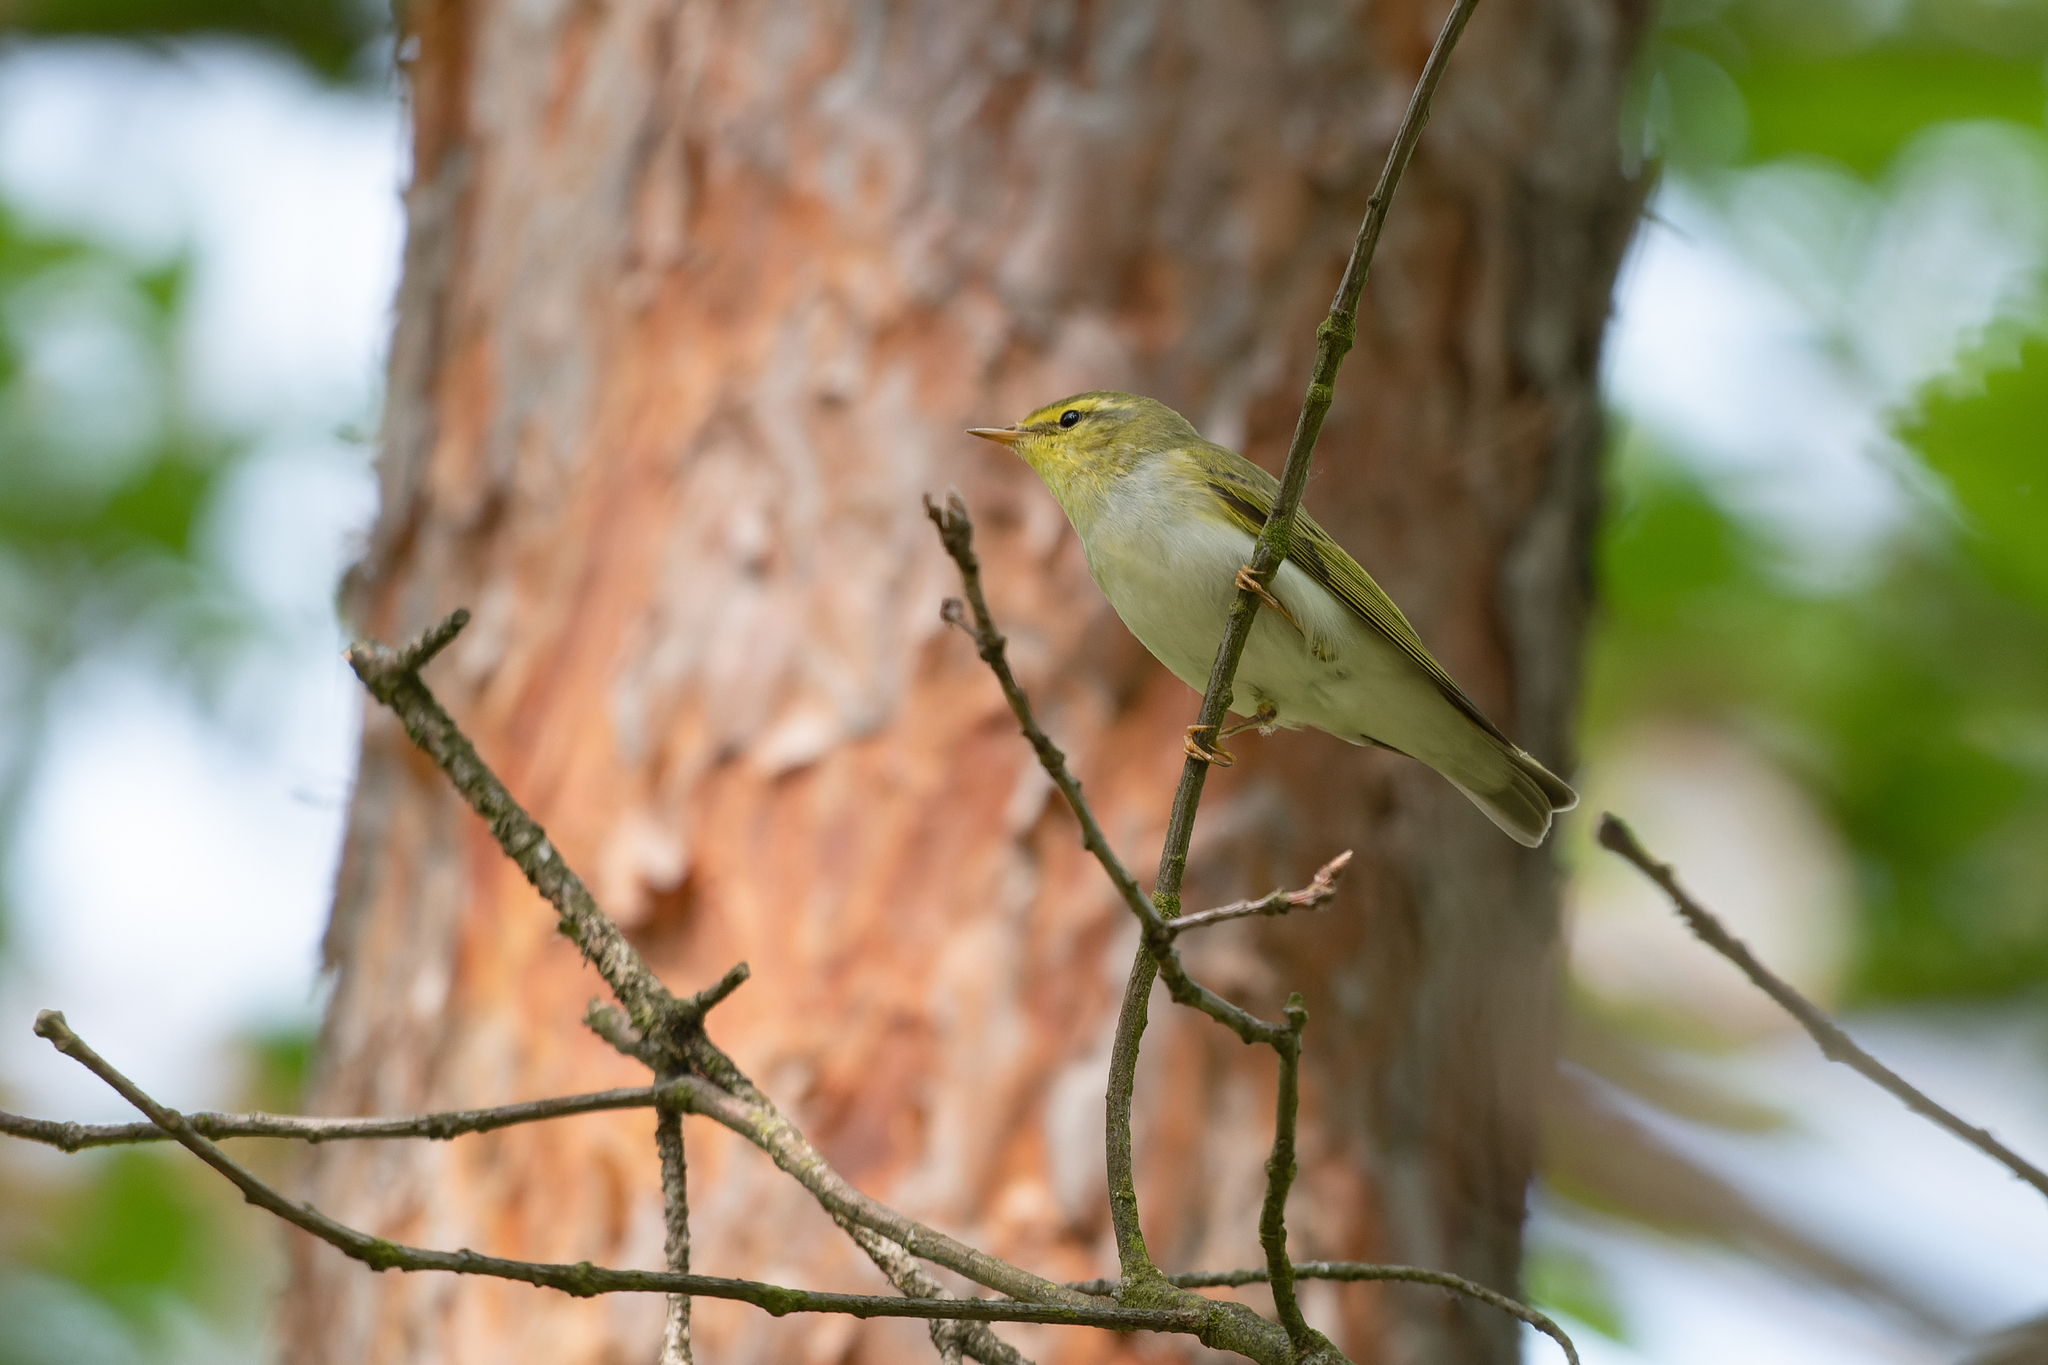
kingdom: Animalia
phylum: Chordata
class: Aves
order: Passeriformes
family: Phylloscopidae
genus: Phylloscopus
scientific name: Phylloscopus sibillatrix
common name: Wood warbler
